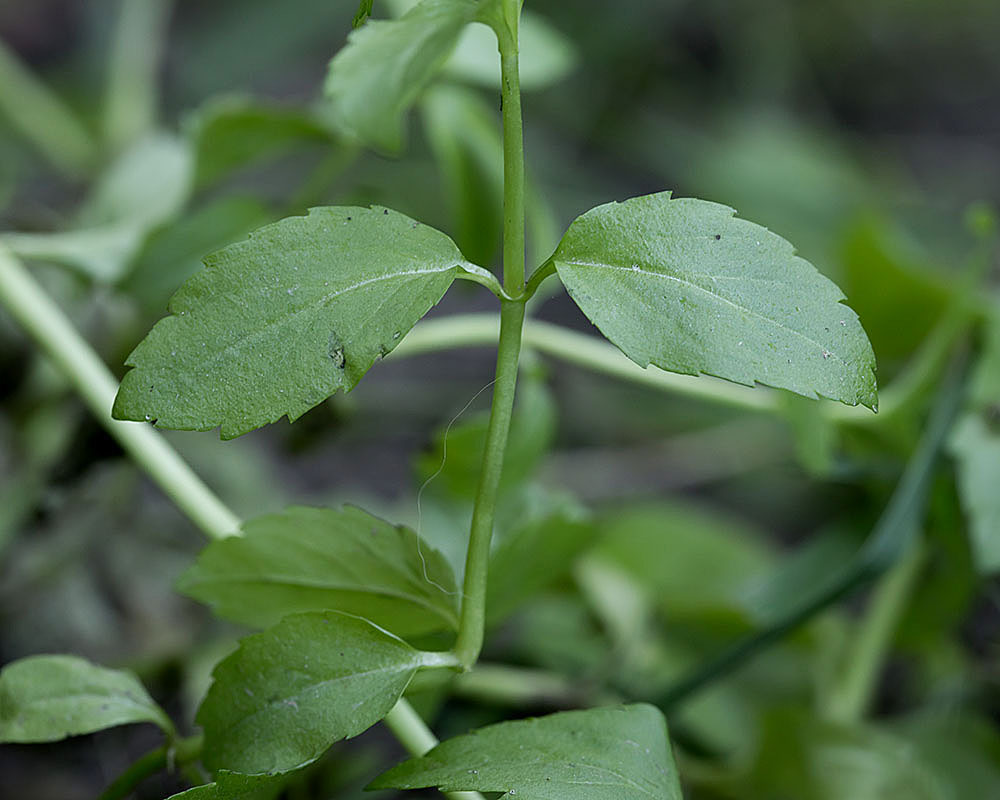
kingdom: Plantae
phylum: Tracheophyta
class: Magnoliopsida
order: Lamiales
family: Plantaginaceae
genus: Veronica
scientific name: Veronica americana
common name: American brooklime
